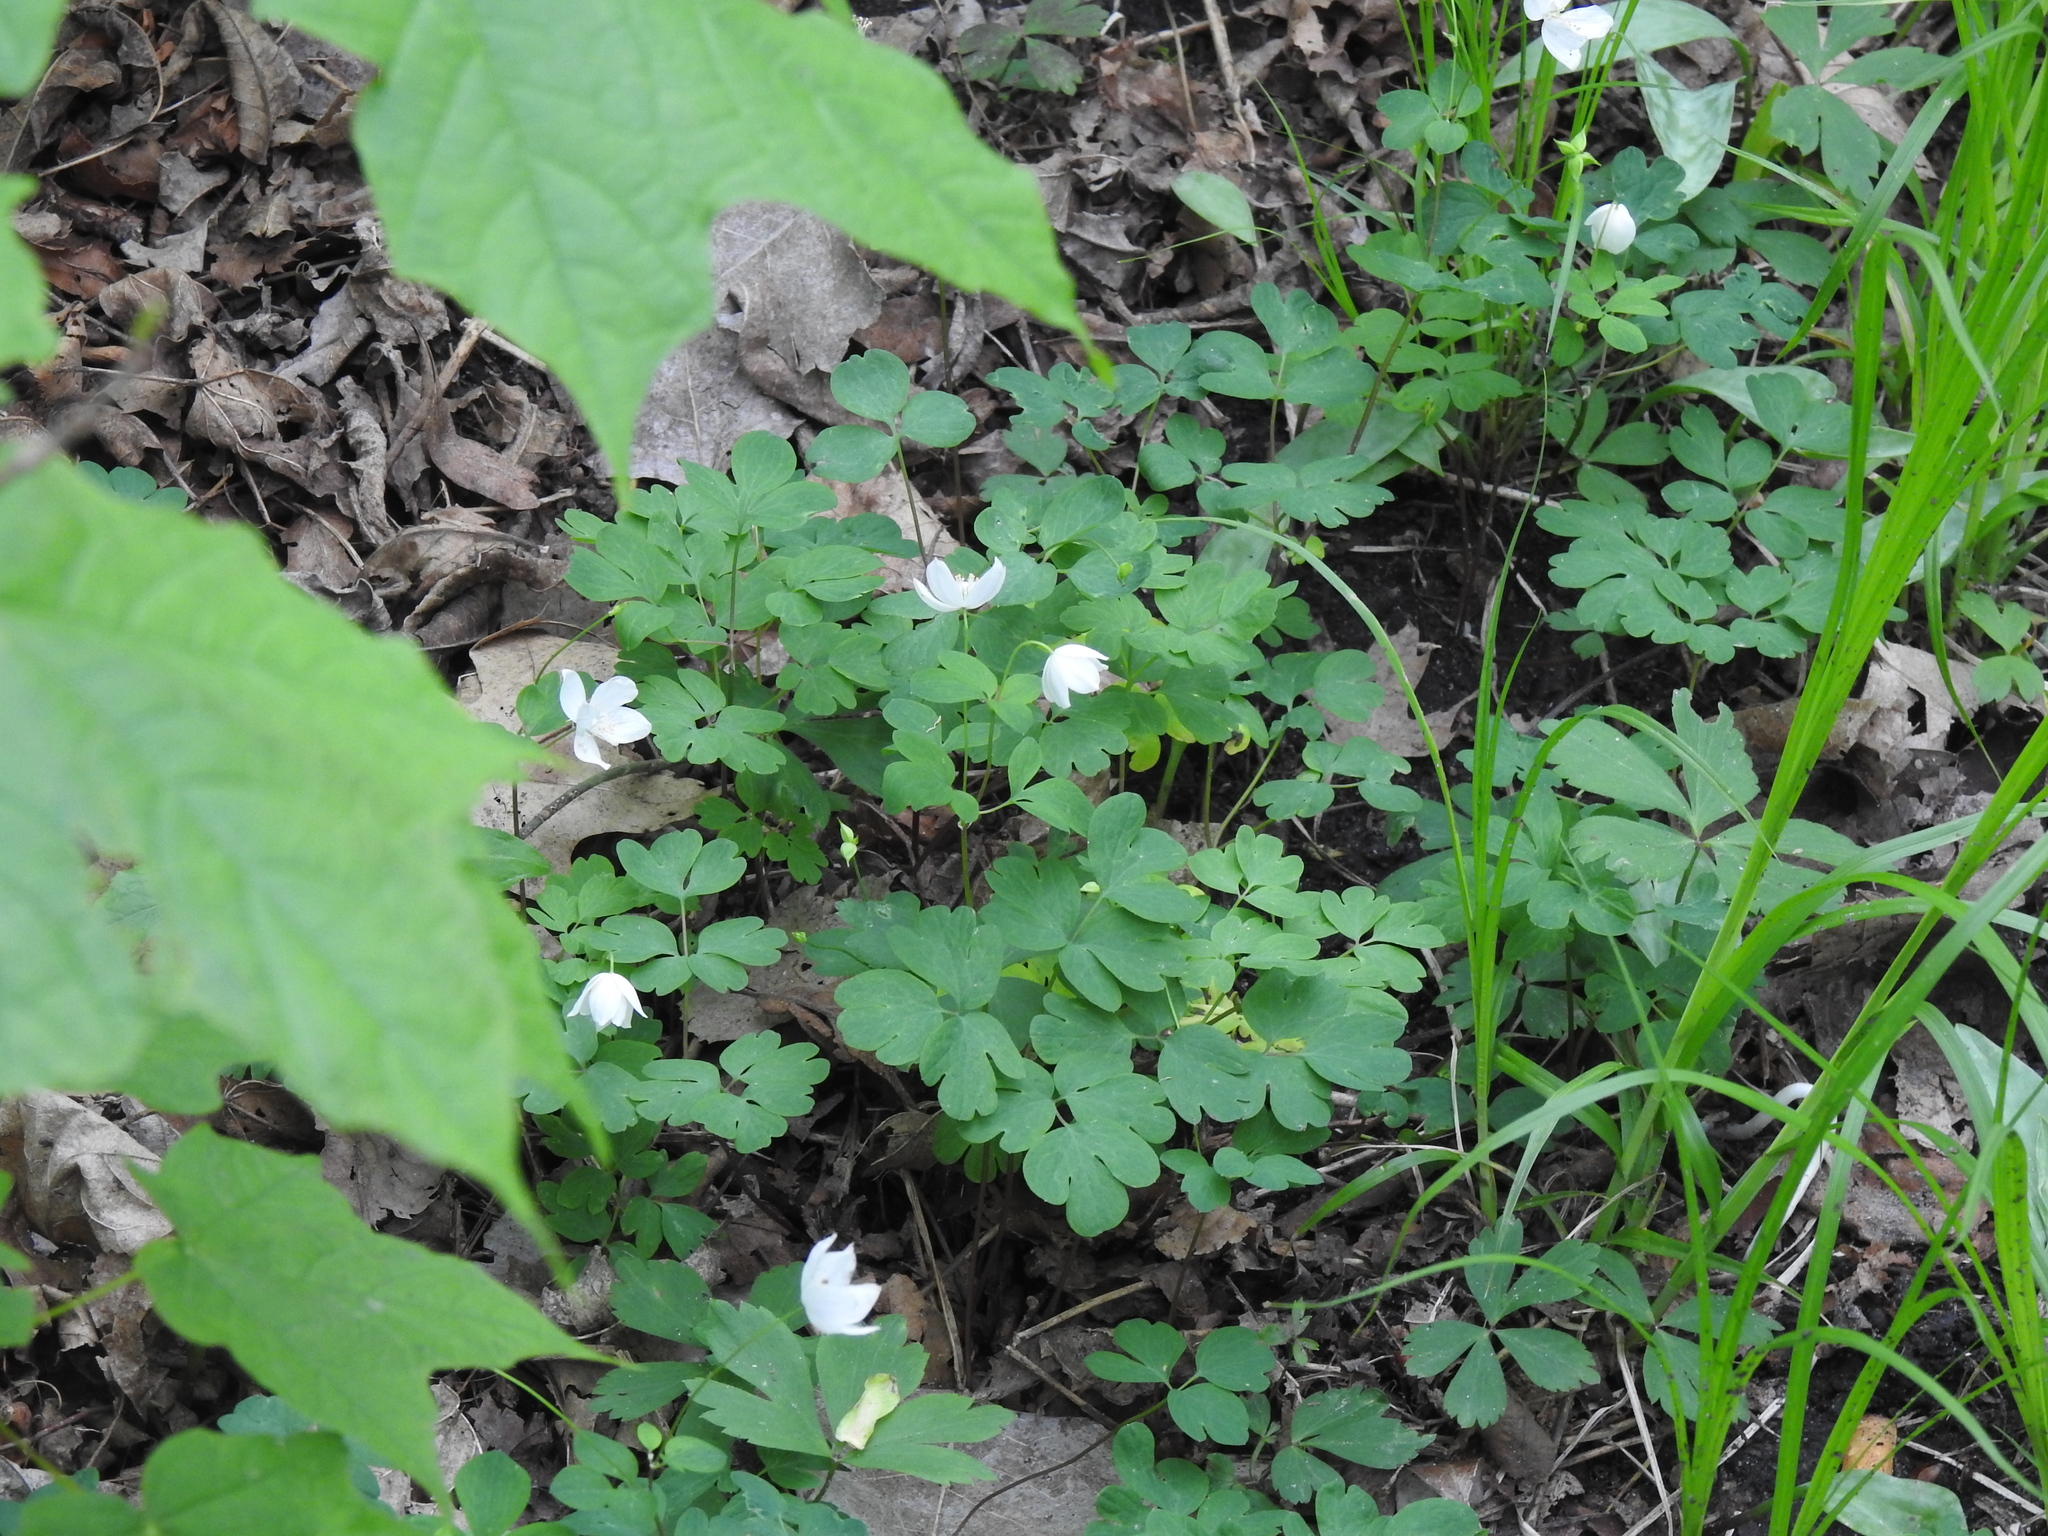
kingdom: Plantae
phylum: Tracheophyta
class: Magnoliopsida
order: Ranunculales
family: Ranunculaceae
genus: Enemion
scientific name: Enemion biternatum
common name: Eastern false rue-anemone
